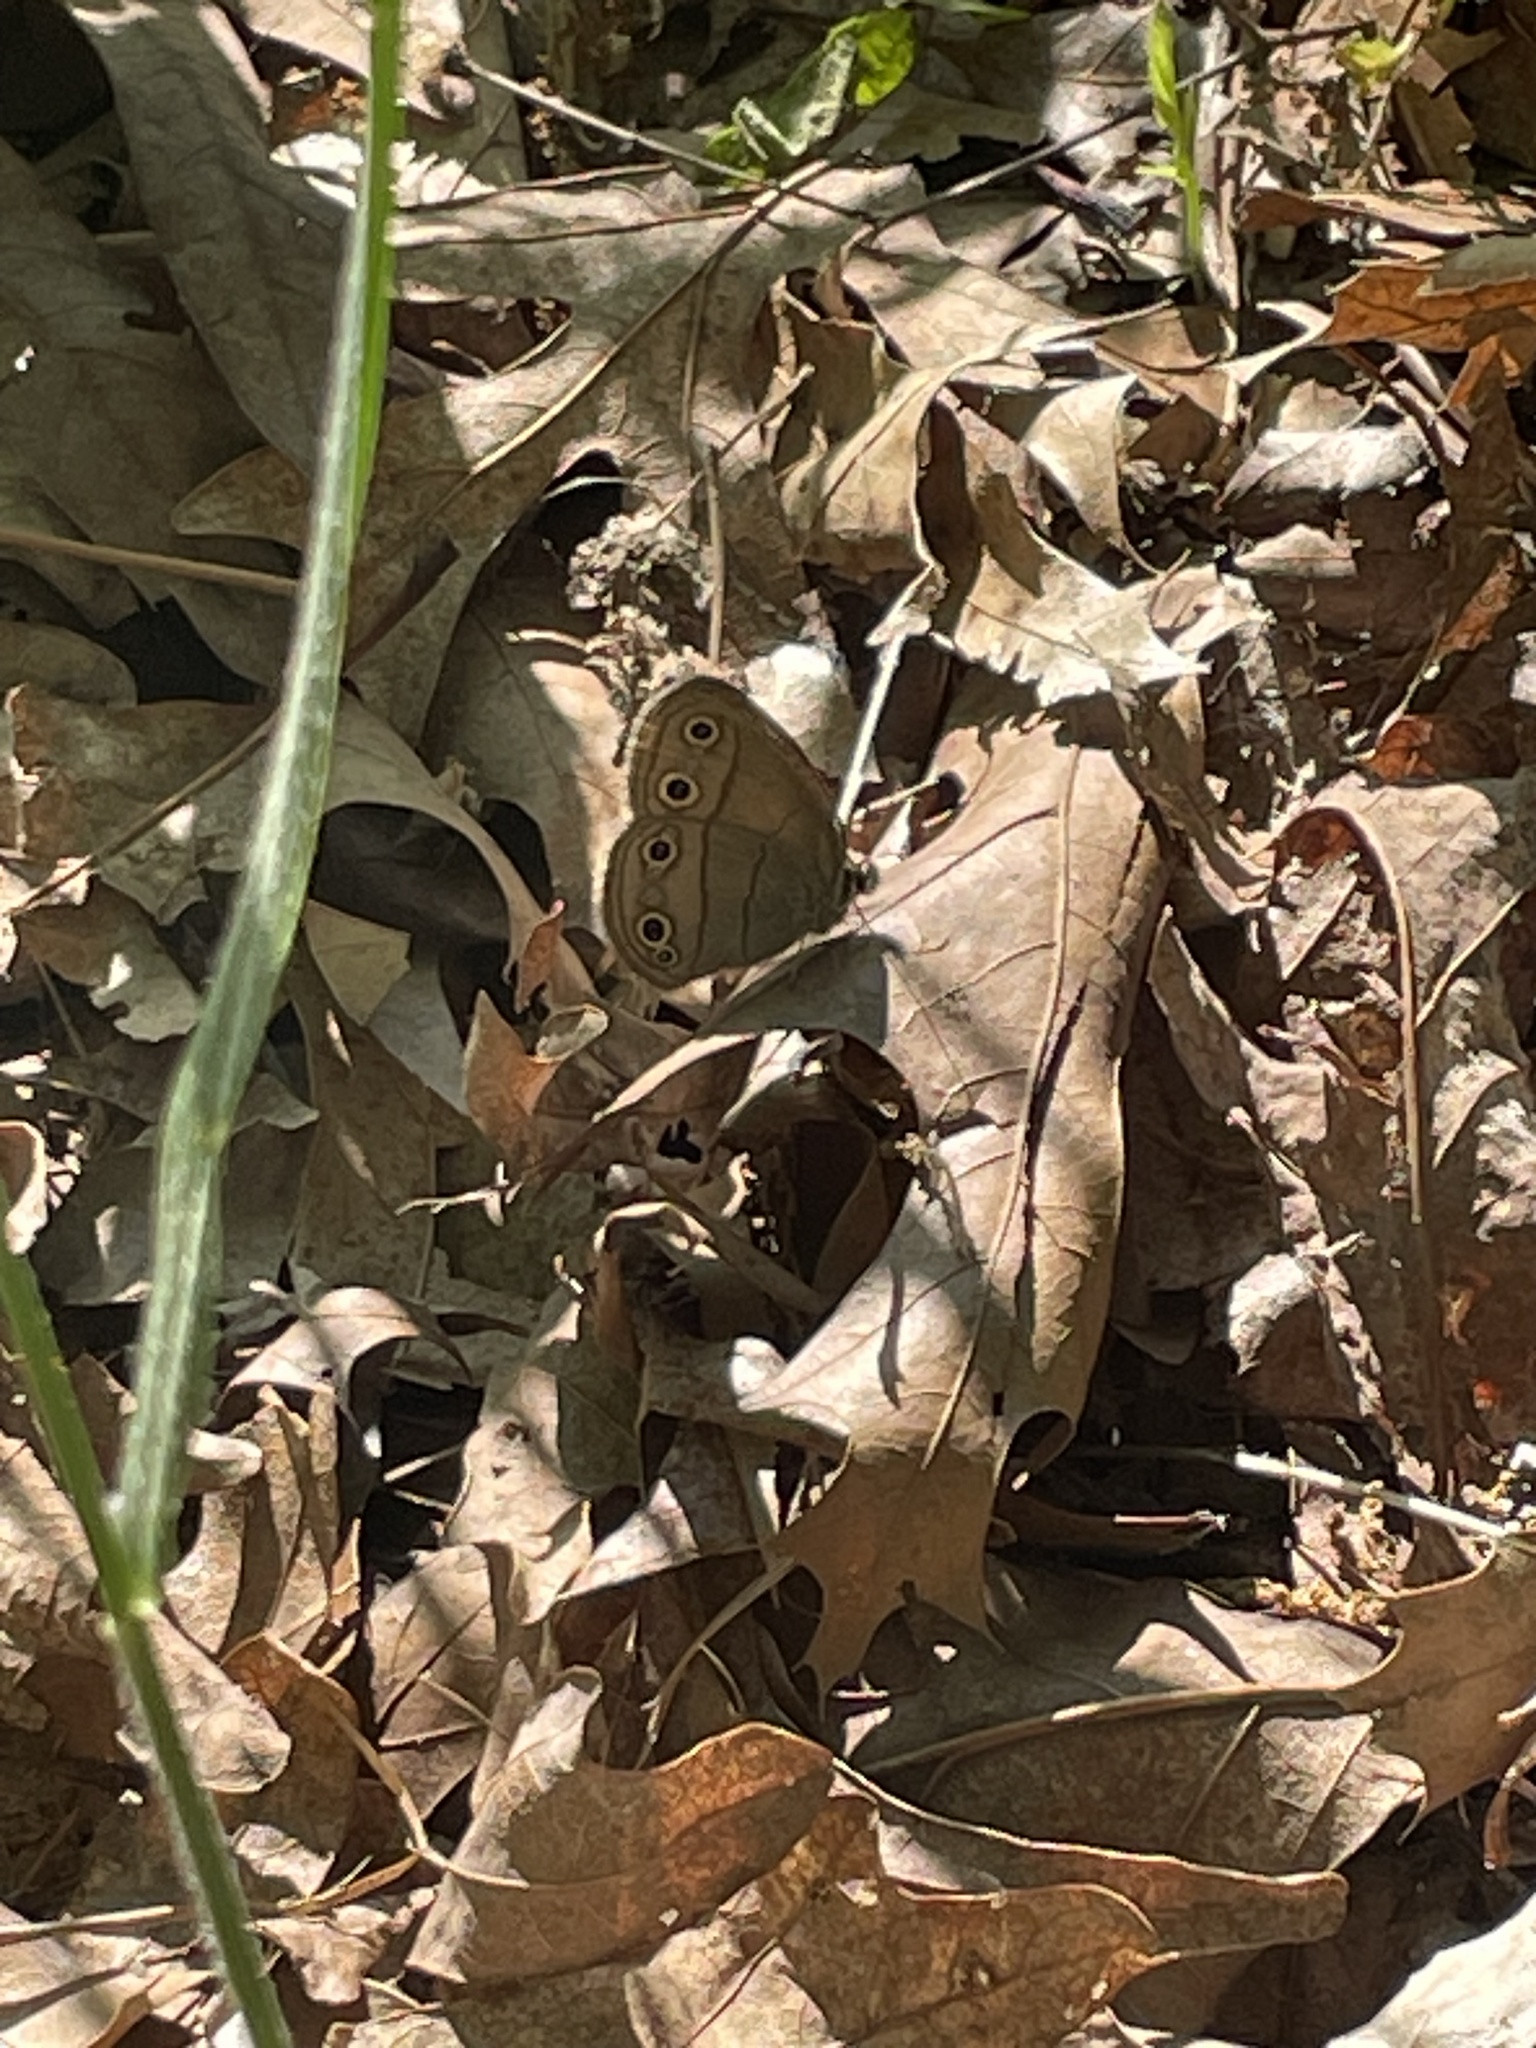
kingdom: Animalia
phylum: Arthropoda
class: Insecta
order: Lepidoptera
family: Nymphalidae
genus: Euptychia
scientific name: Euptychia cymela
